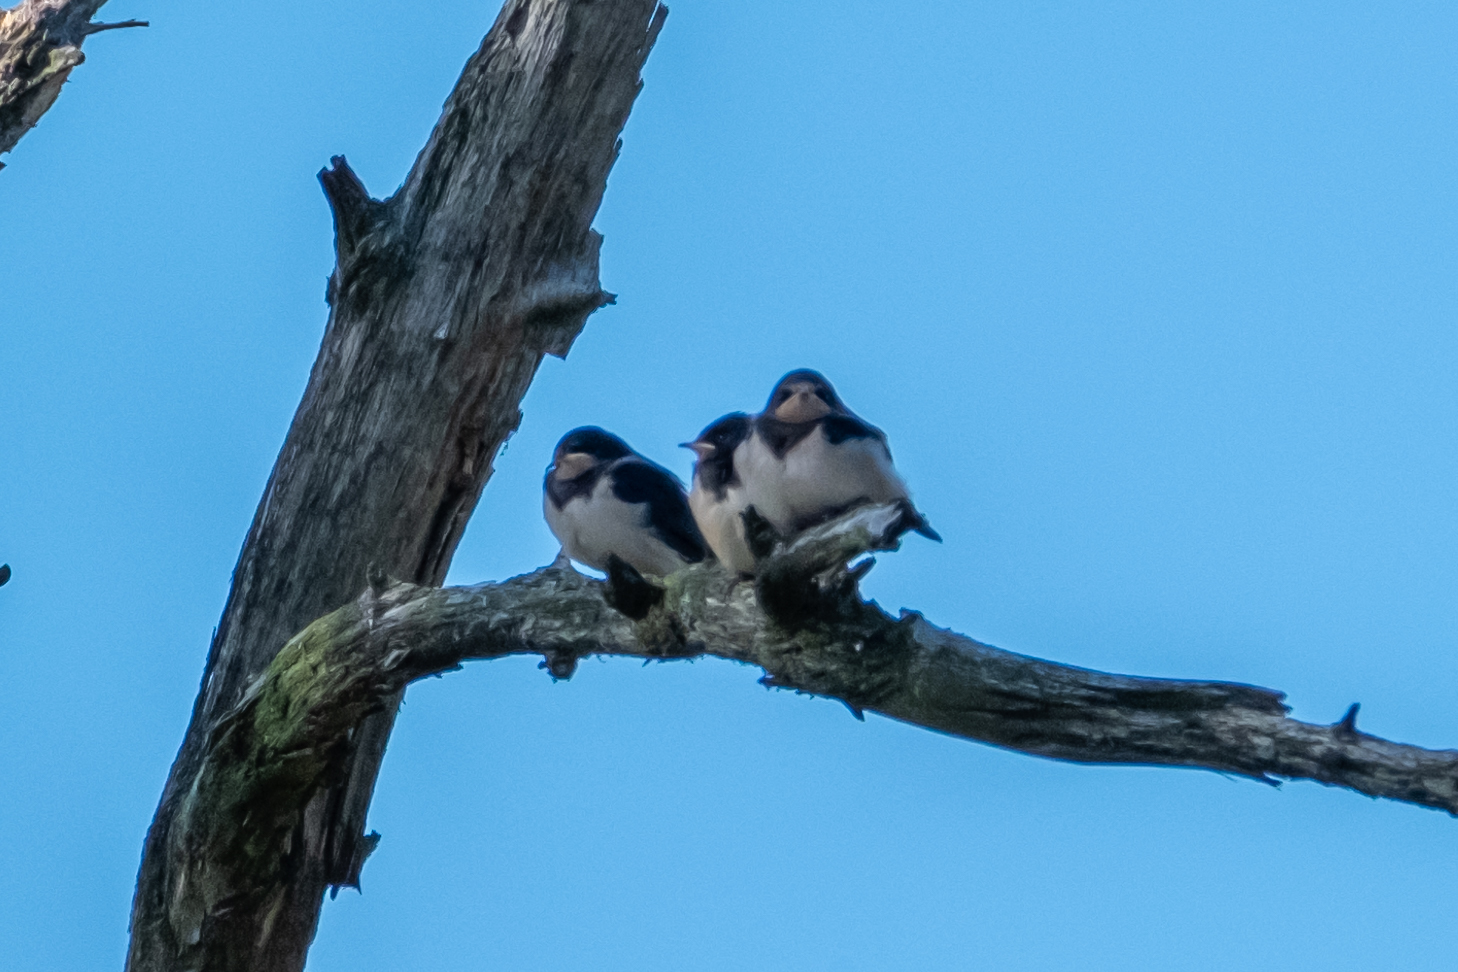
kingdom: Animalia
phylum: Chordata
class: Aves
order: Passeriformes
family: Hirundinidae
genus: Hirundo
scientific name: Hirundo rustica
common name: Barn swallow
